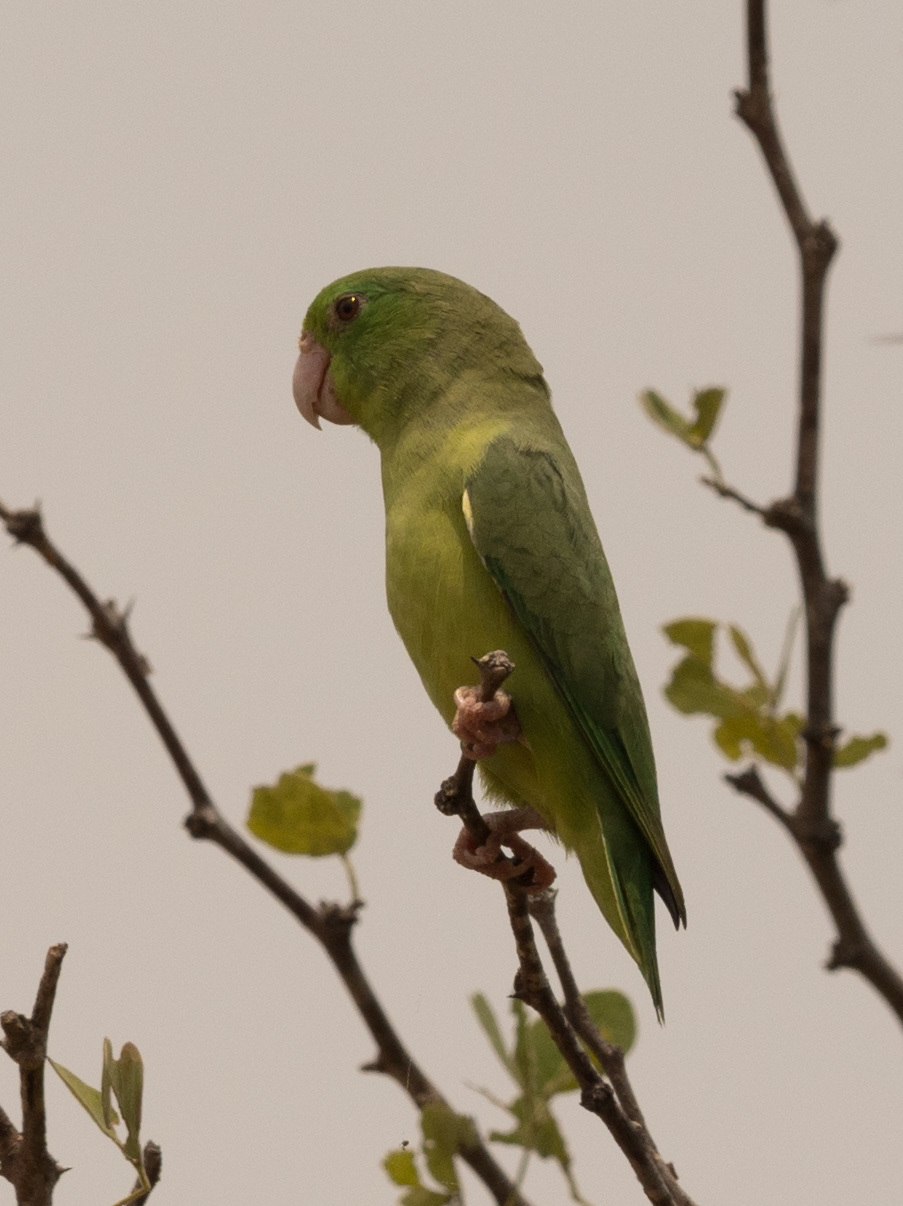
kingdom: Animalia
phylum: Chordata
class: Aves
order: Psittaciformes
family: Psittacidae
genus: Forpus
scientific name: Forpus conspicillatus
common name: Spectacled parrotlet
